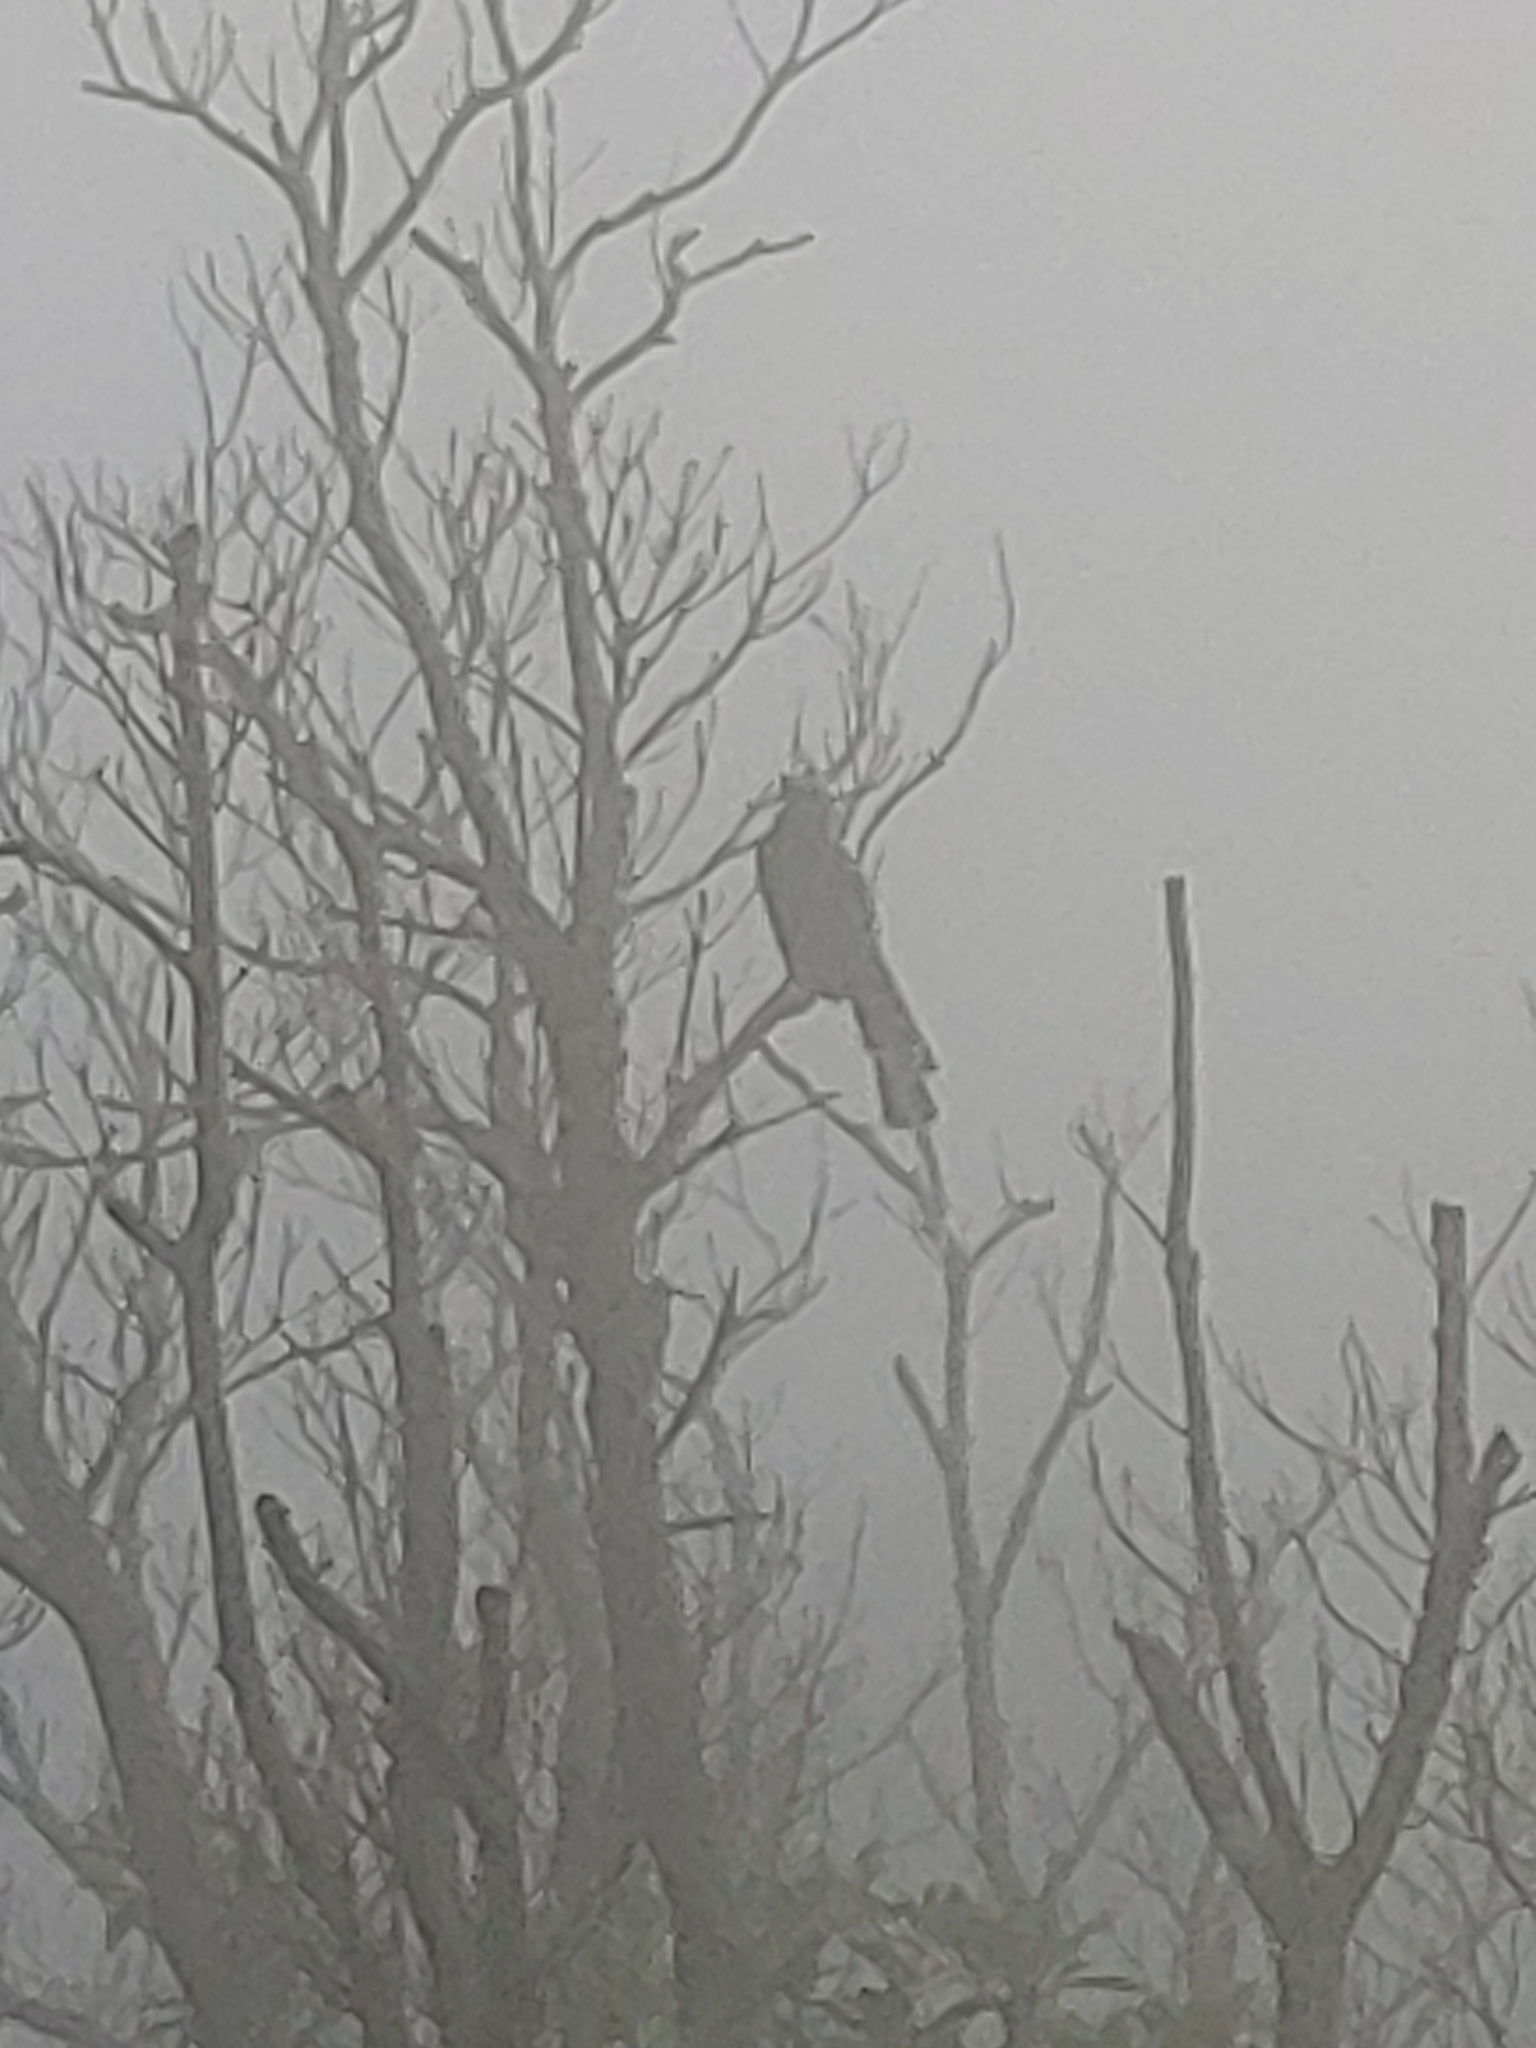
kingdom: Animalia
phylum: Chordata
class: Aves
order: Passeriformes
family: Corvidae
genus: Urocissa
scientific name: Urocissa caerulea
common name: Taiwan blue magpie
